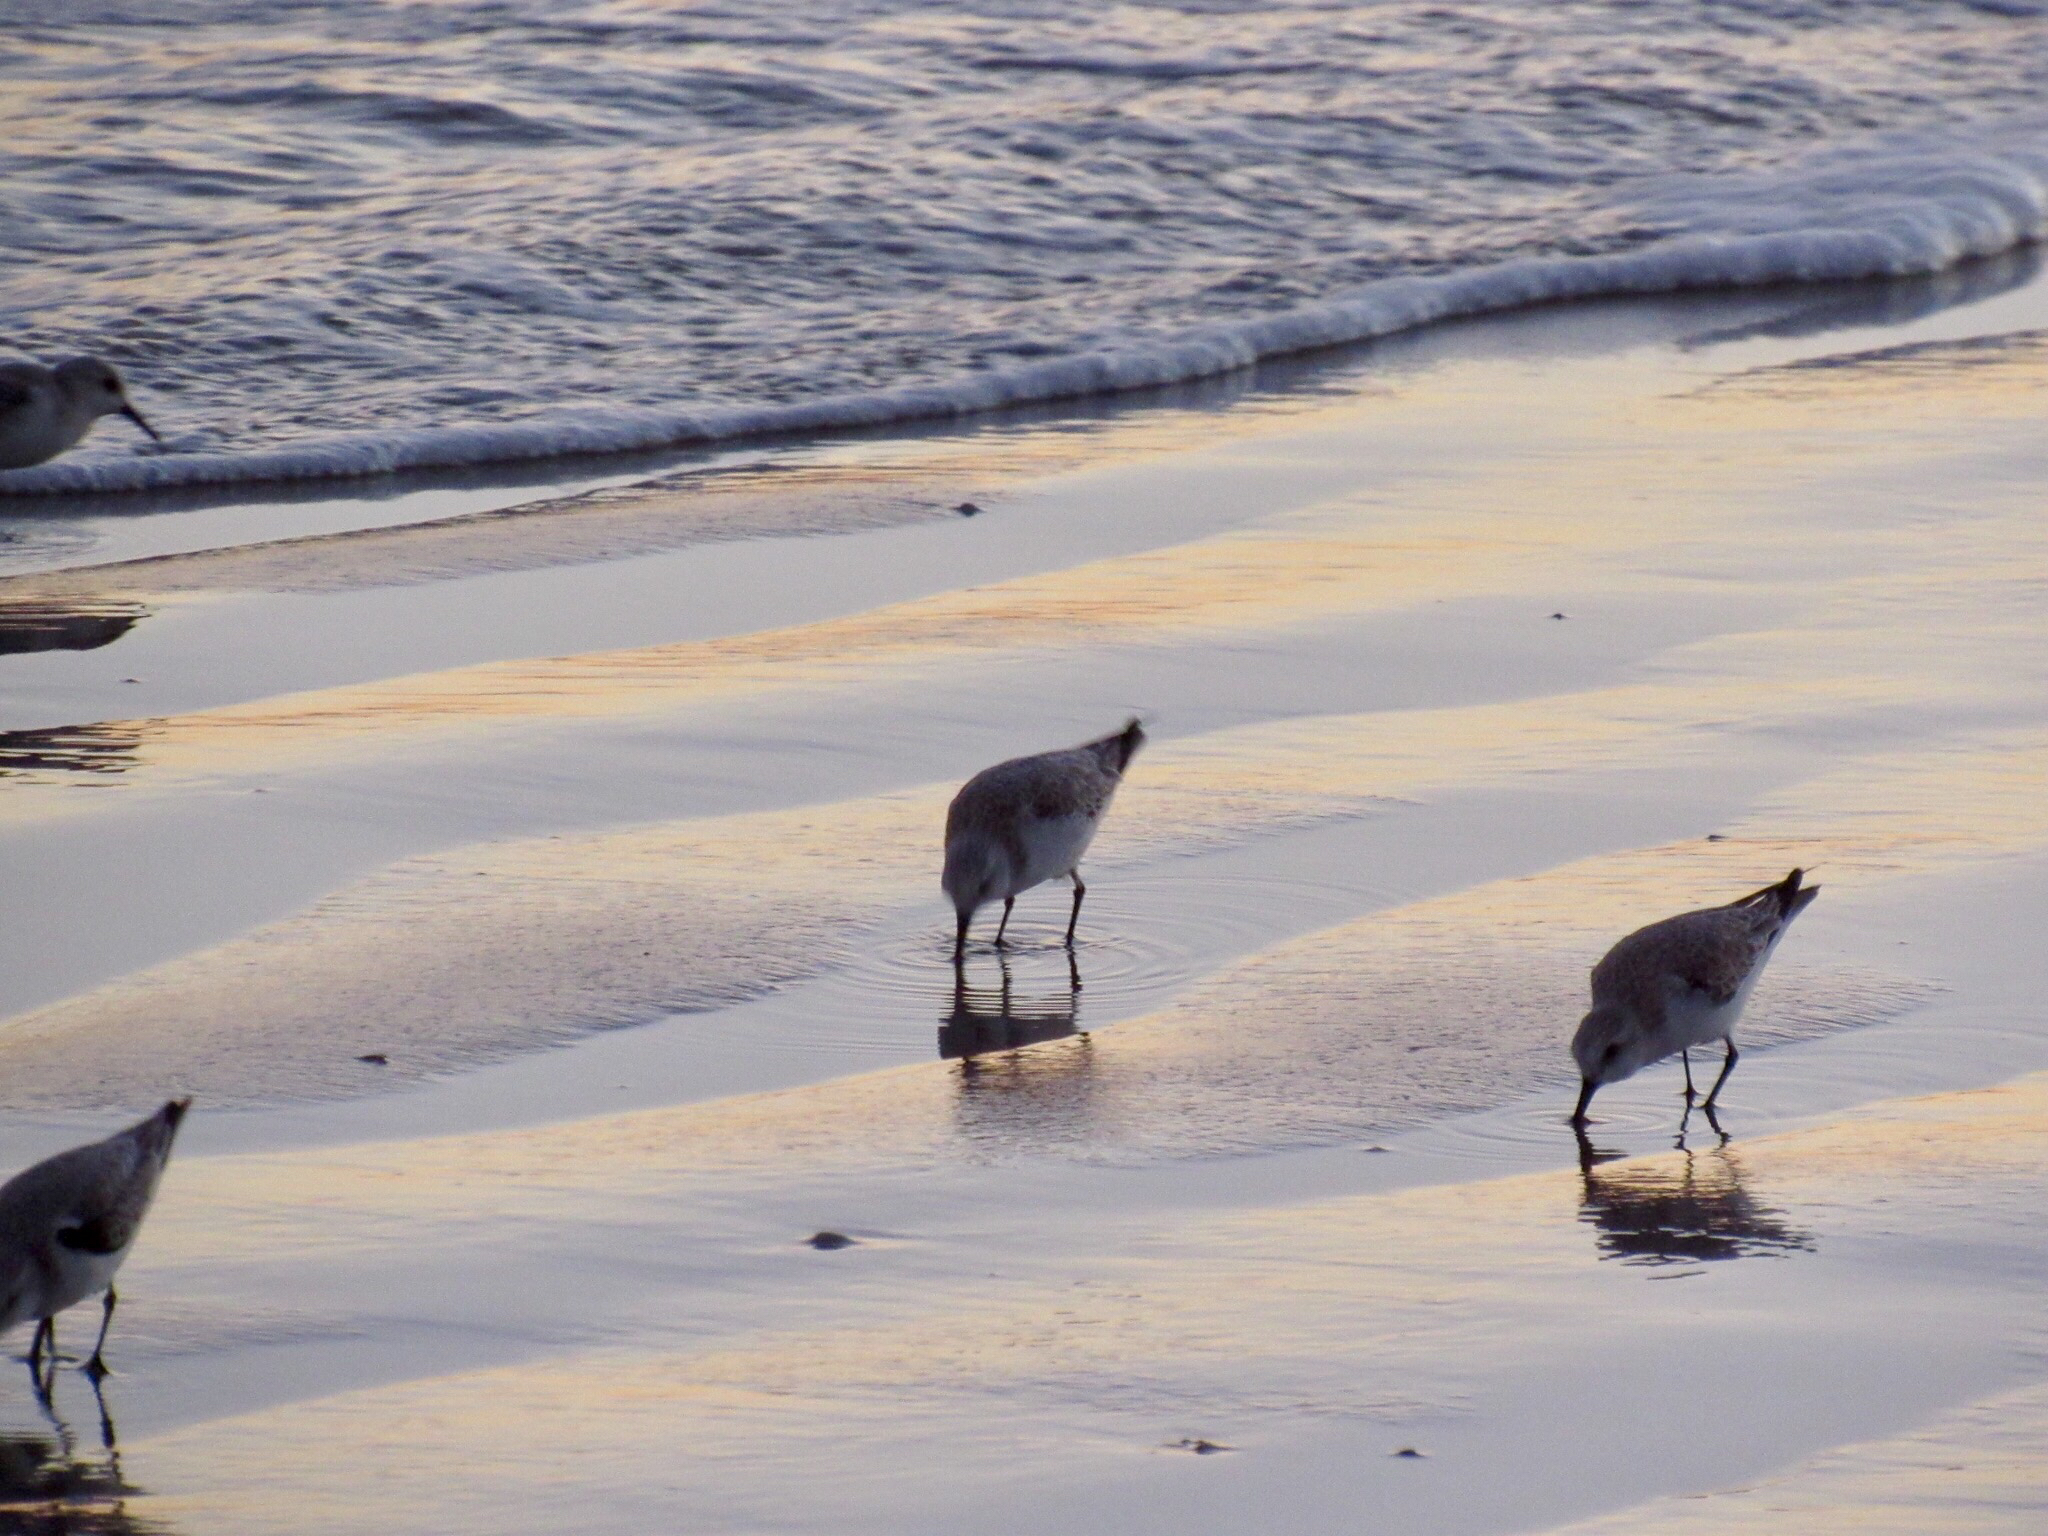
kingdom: Animalia
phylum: Chordata
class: Aves
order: Charadriiformes
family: Scolopacidae
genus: Calidris
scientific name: Calidris alba
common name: Sanderling
